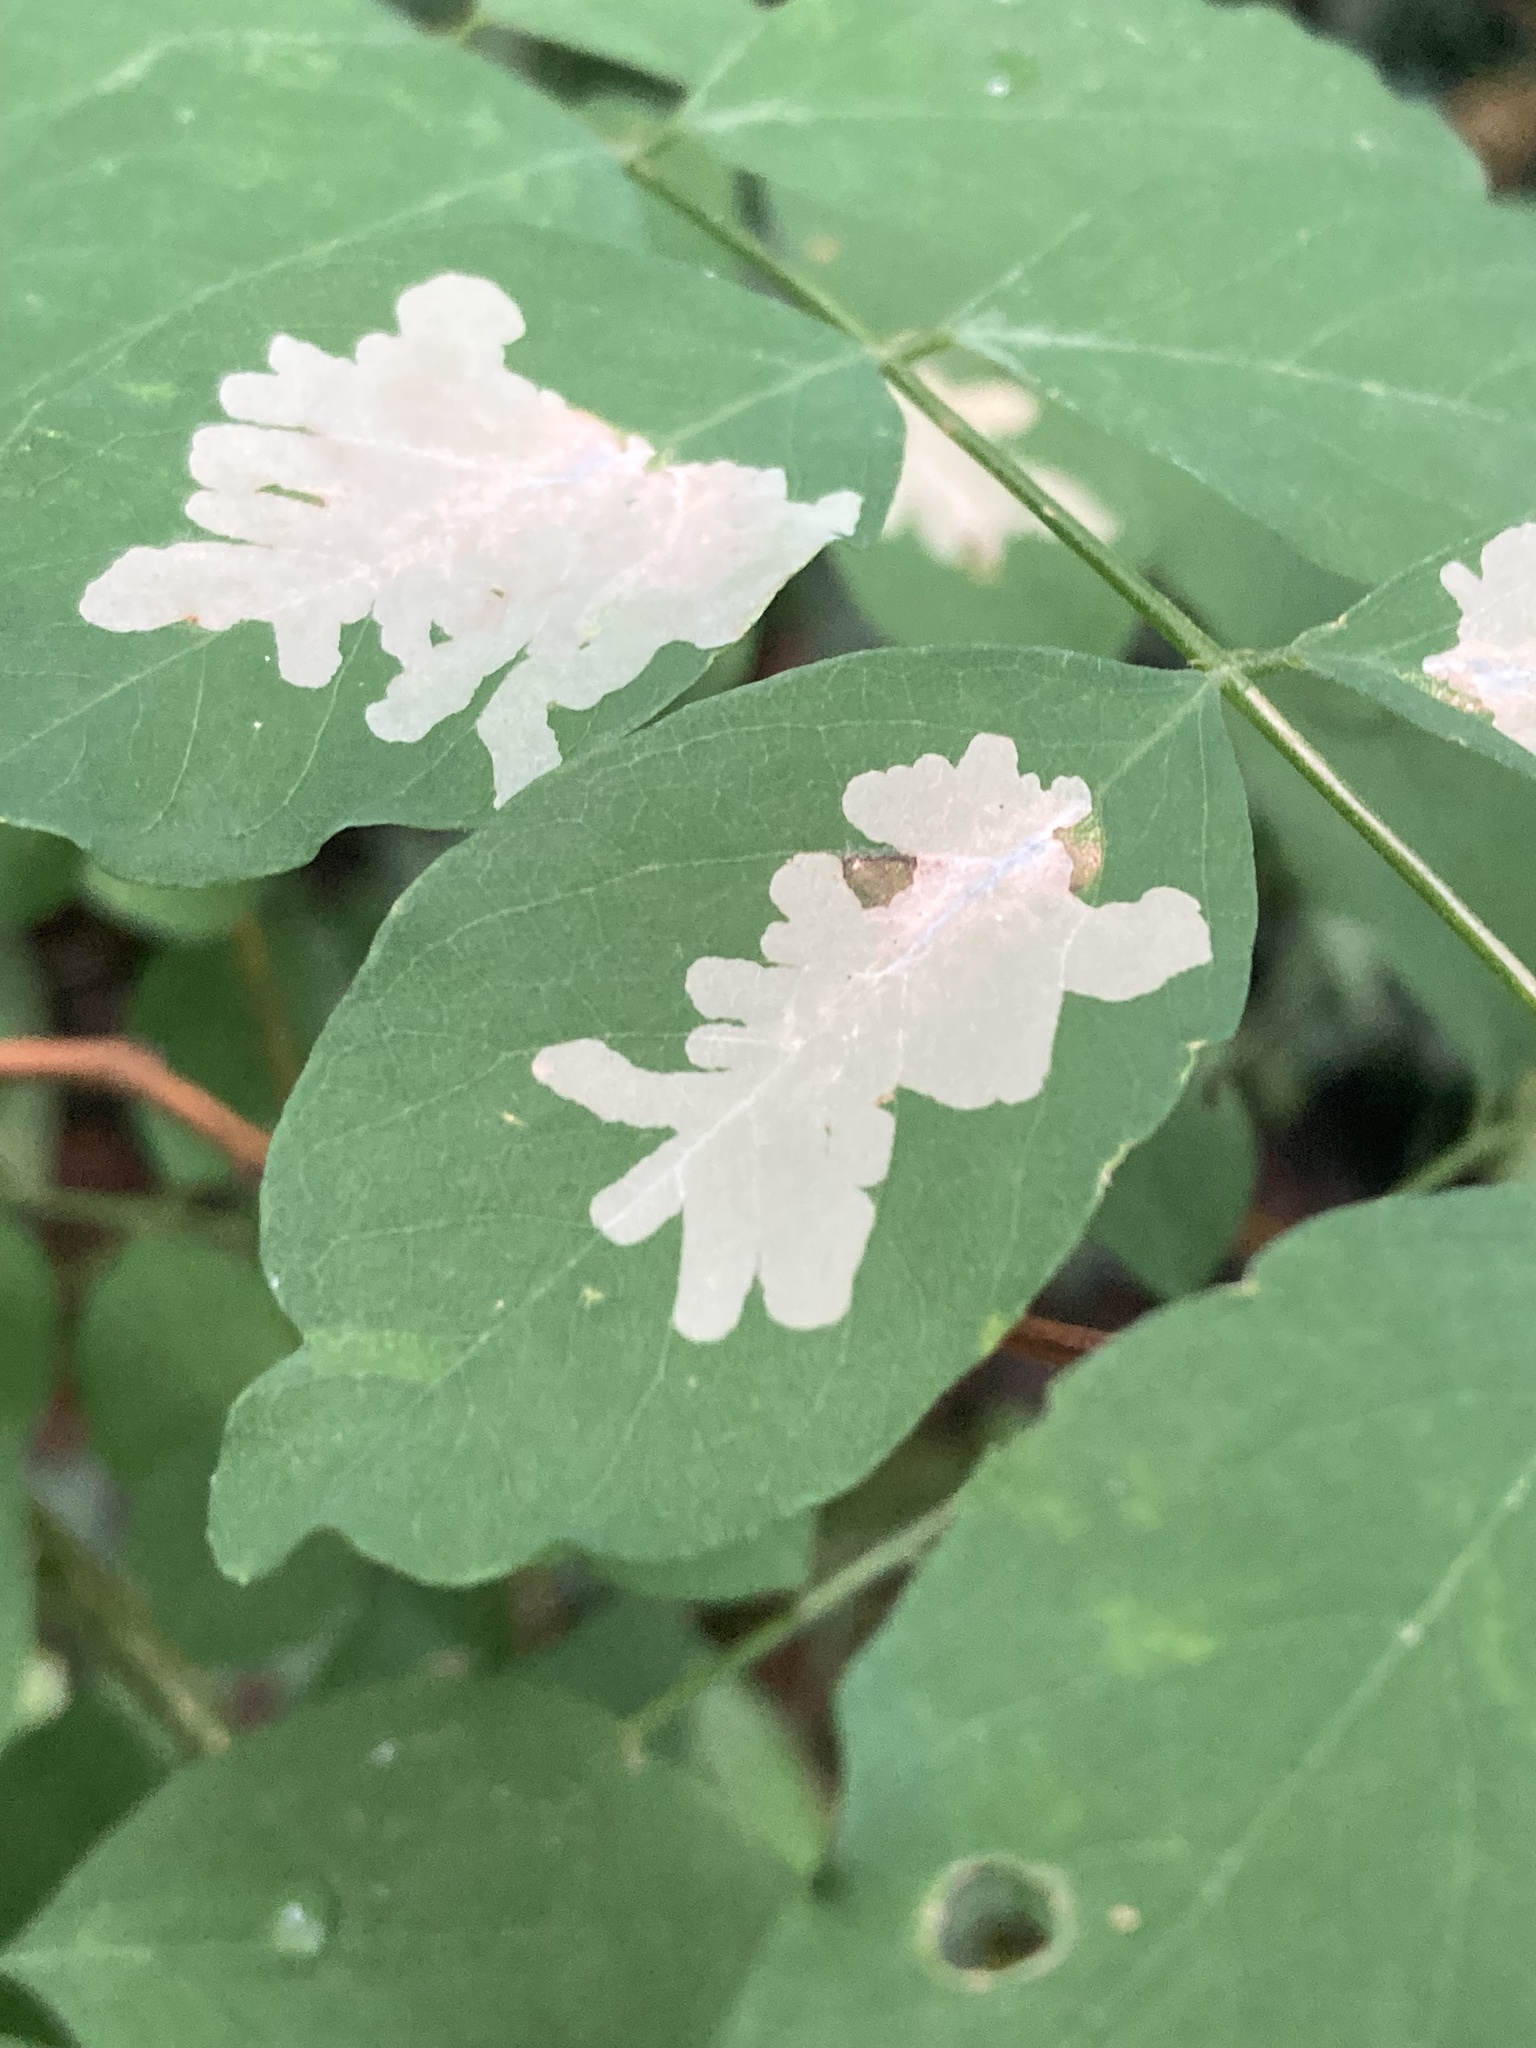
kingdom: Animalia
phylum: Arthropoda
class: Insecta
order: Lepidoptera
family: Gracillariidae
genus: Parectopa
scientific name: Parectopa robiniella
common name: Locust digitate leafminer
